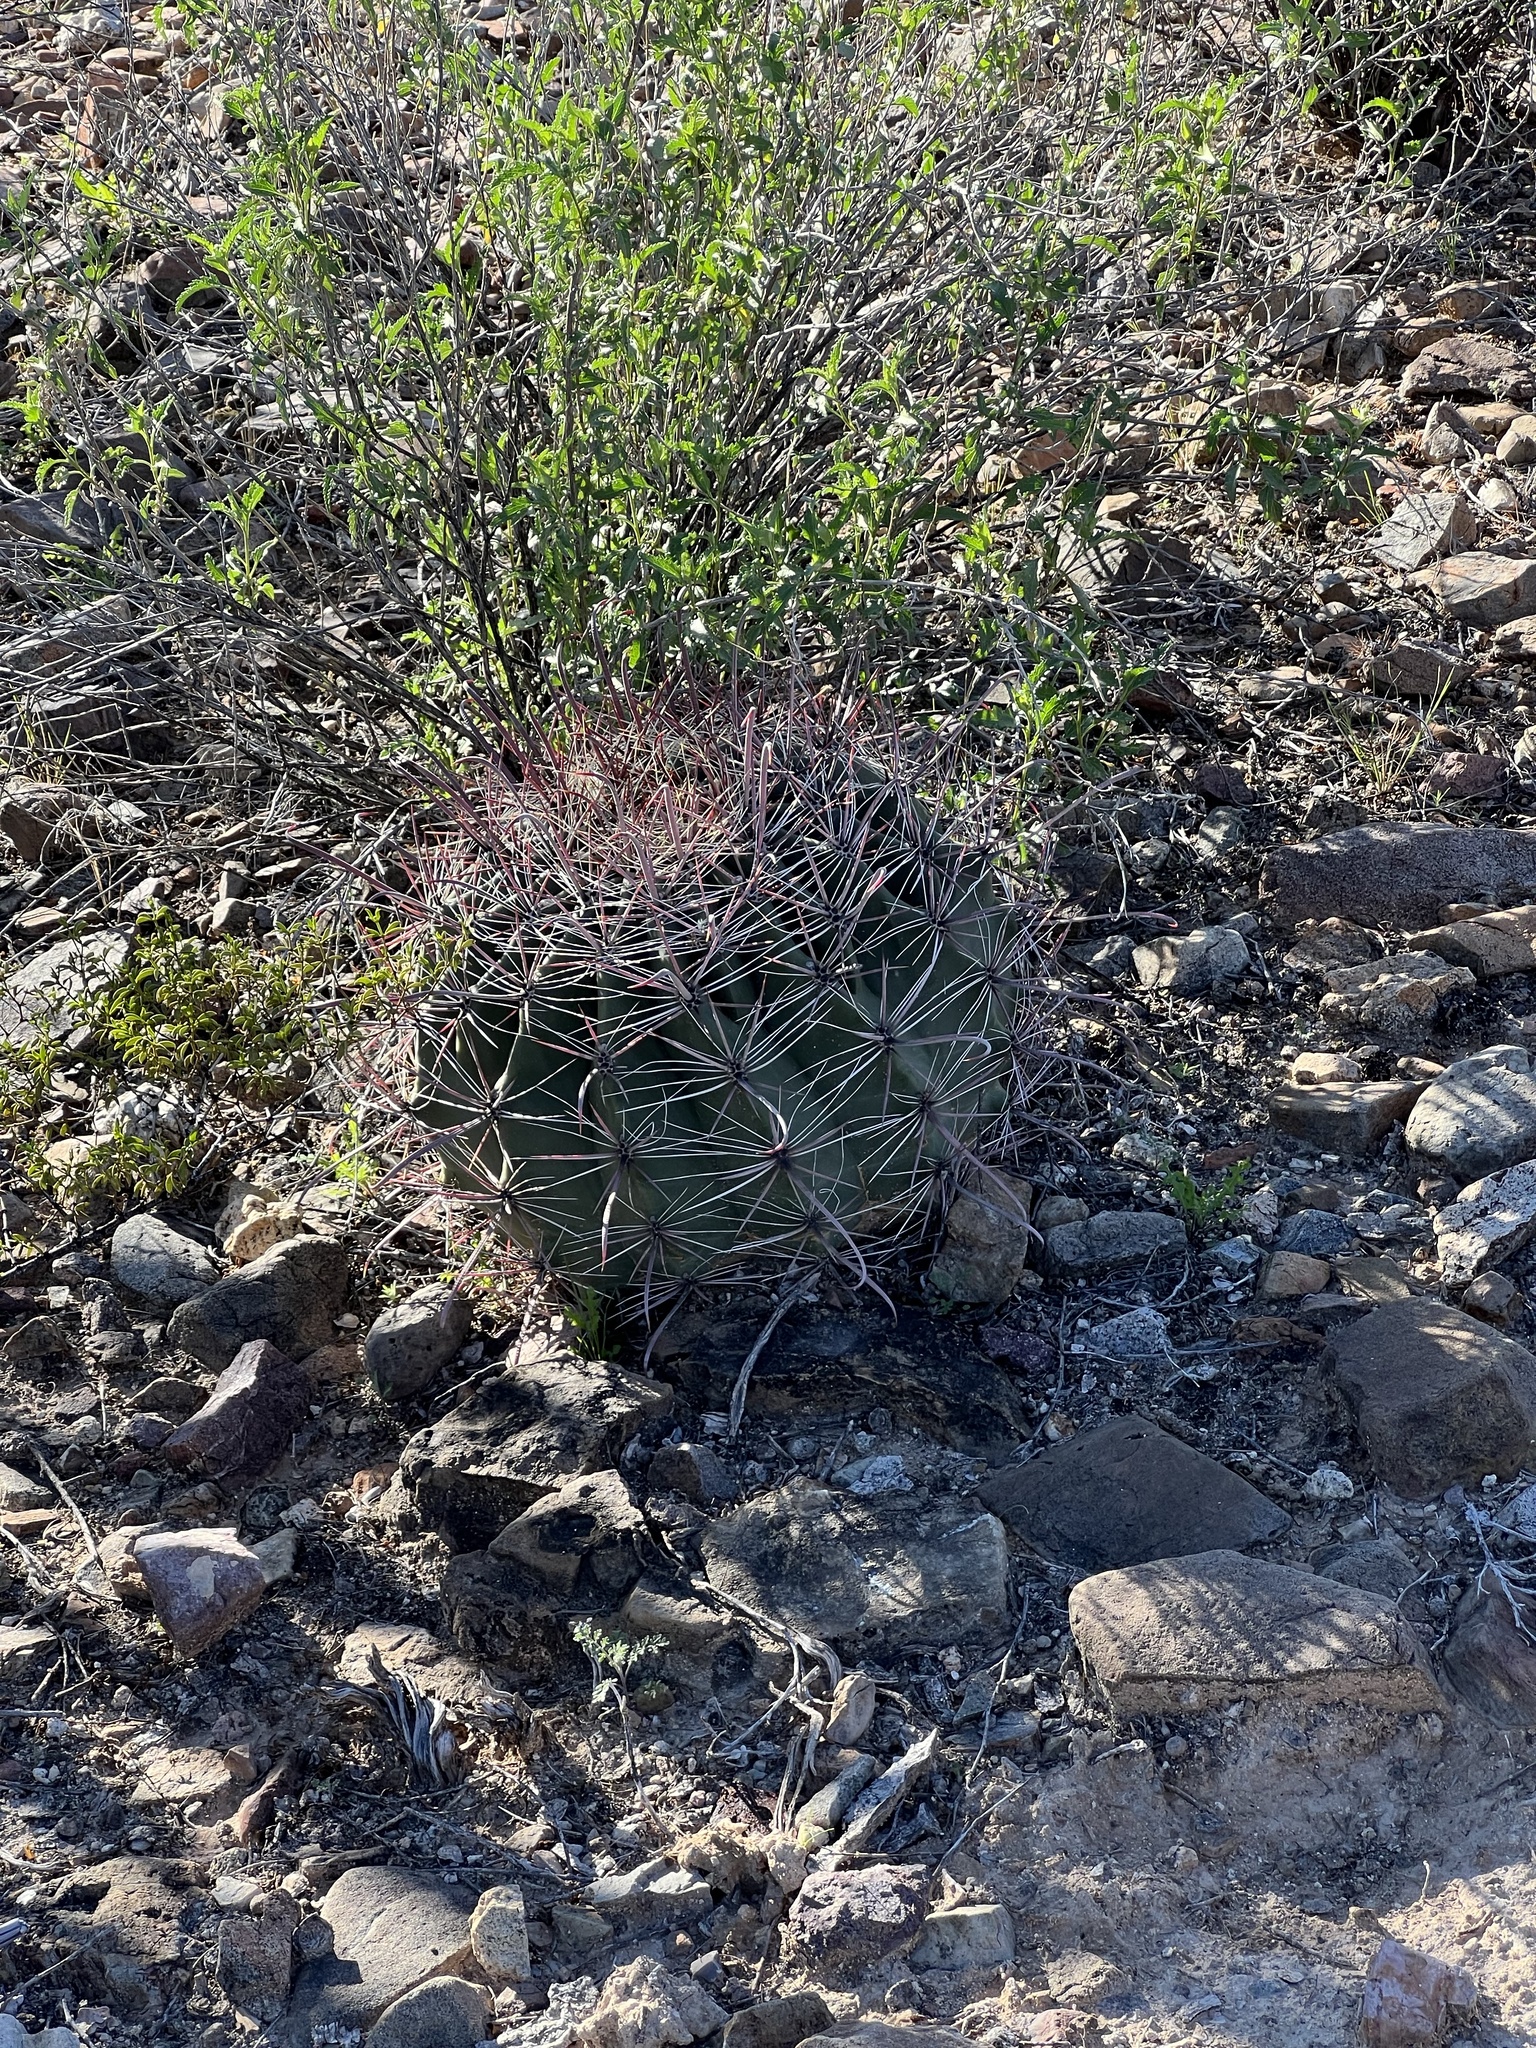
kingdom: Plantae
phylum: Tracheophyta
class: Magnoliopsida
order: Caryophyllales
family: Cactaceae
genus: Ferocactus
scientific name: Ferocactus wislizeni
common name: Candy barrel cactus
